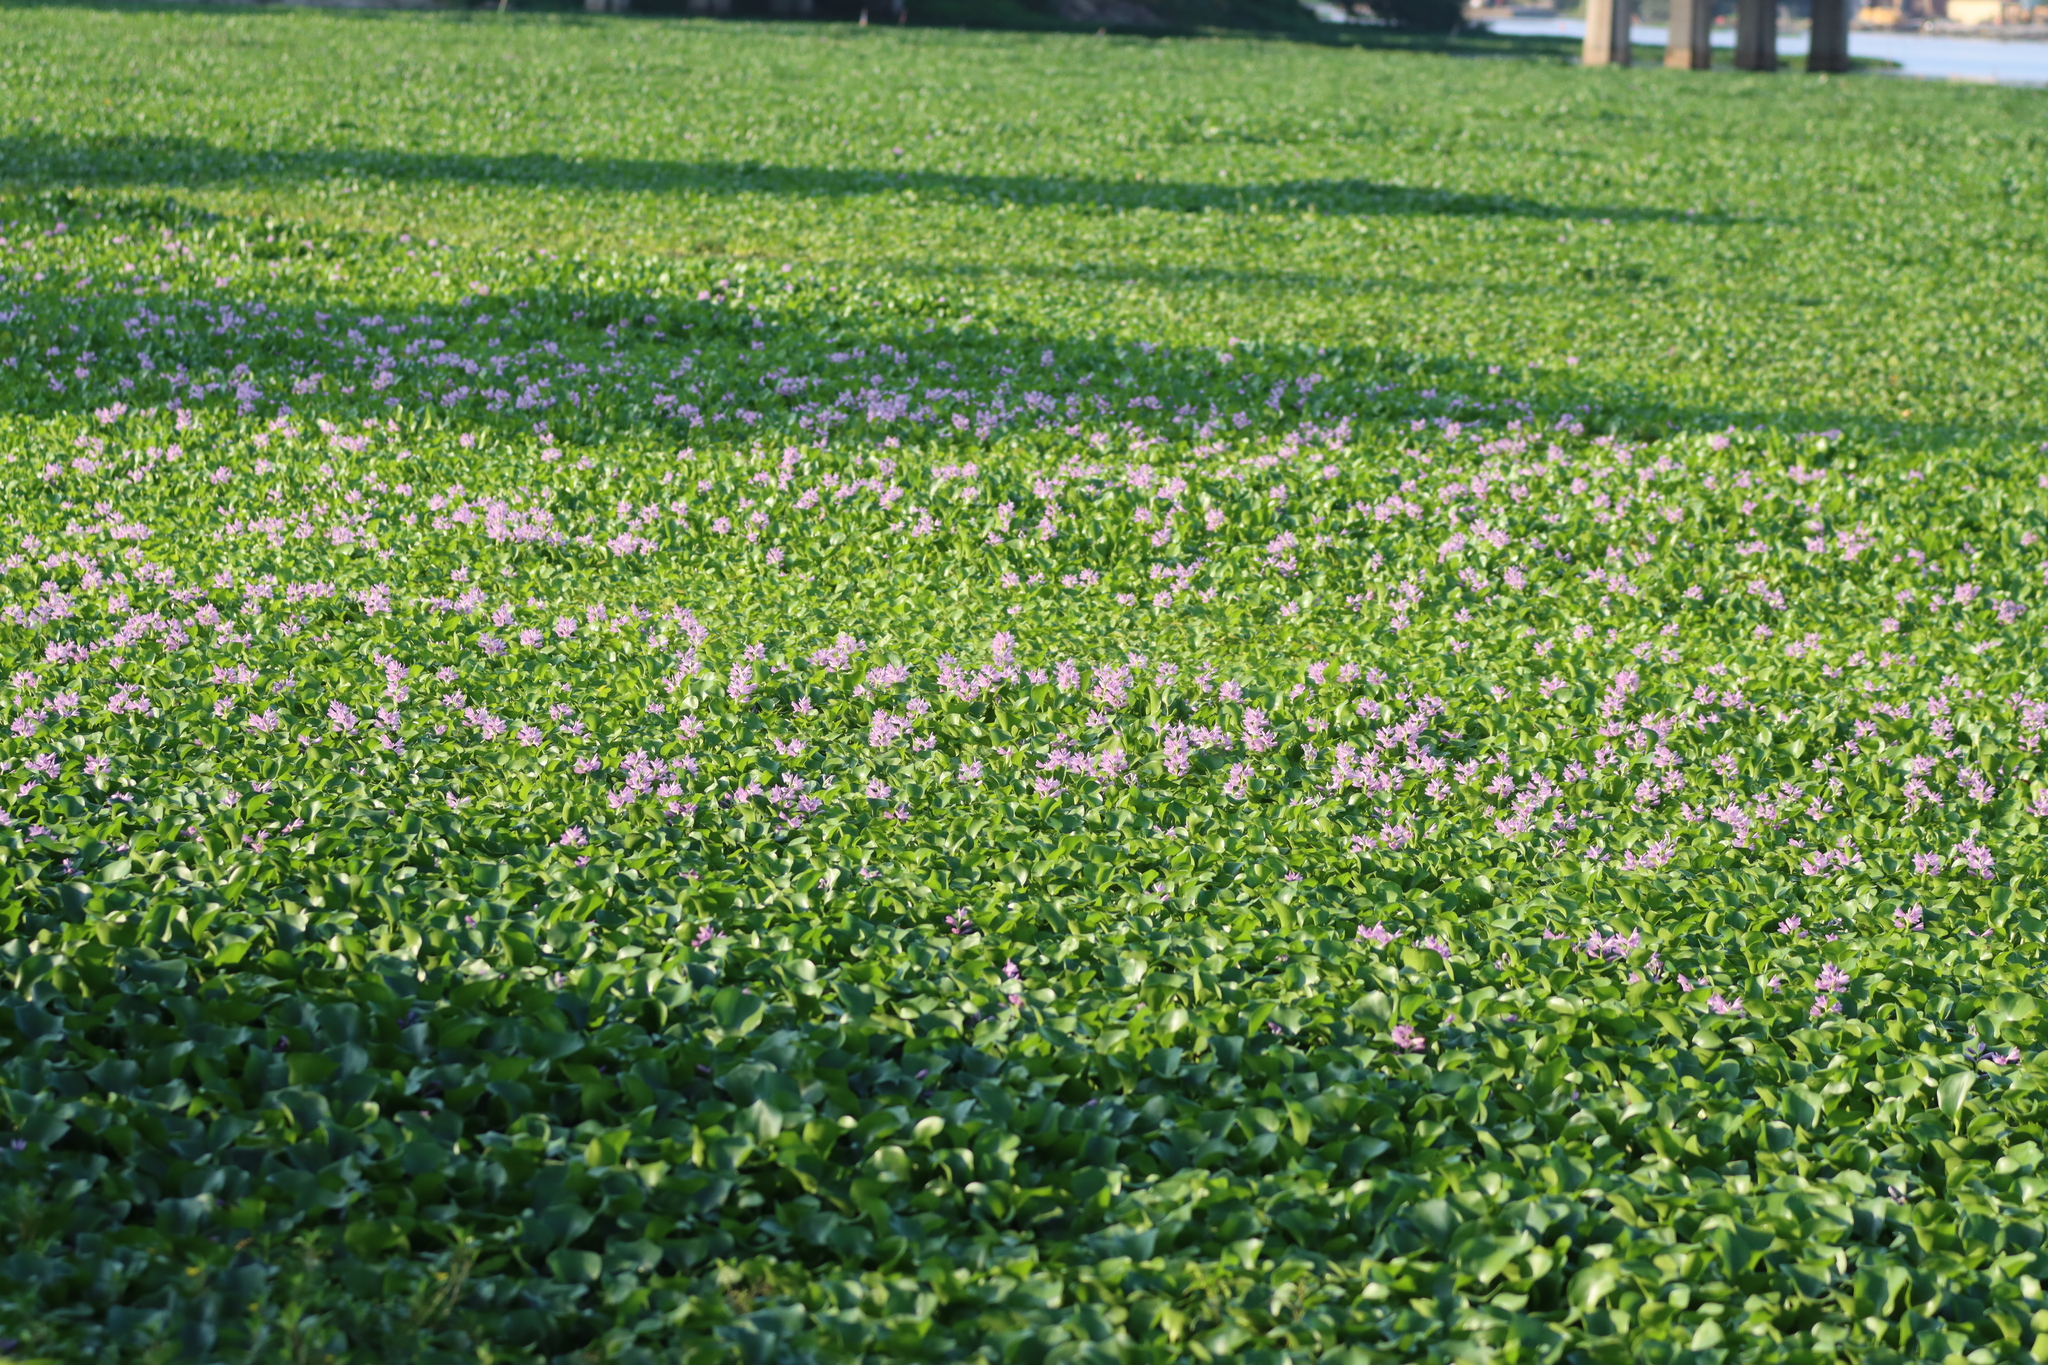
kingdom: Plantae
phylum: Tracheophyta
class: Liliopsida
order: Commelinales
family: Pontederiaceae
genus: Pontederia
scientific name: Pontederia crassipes
